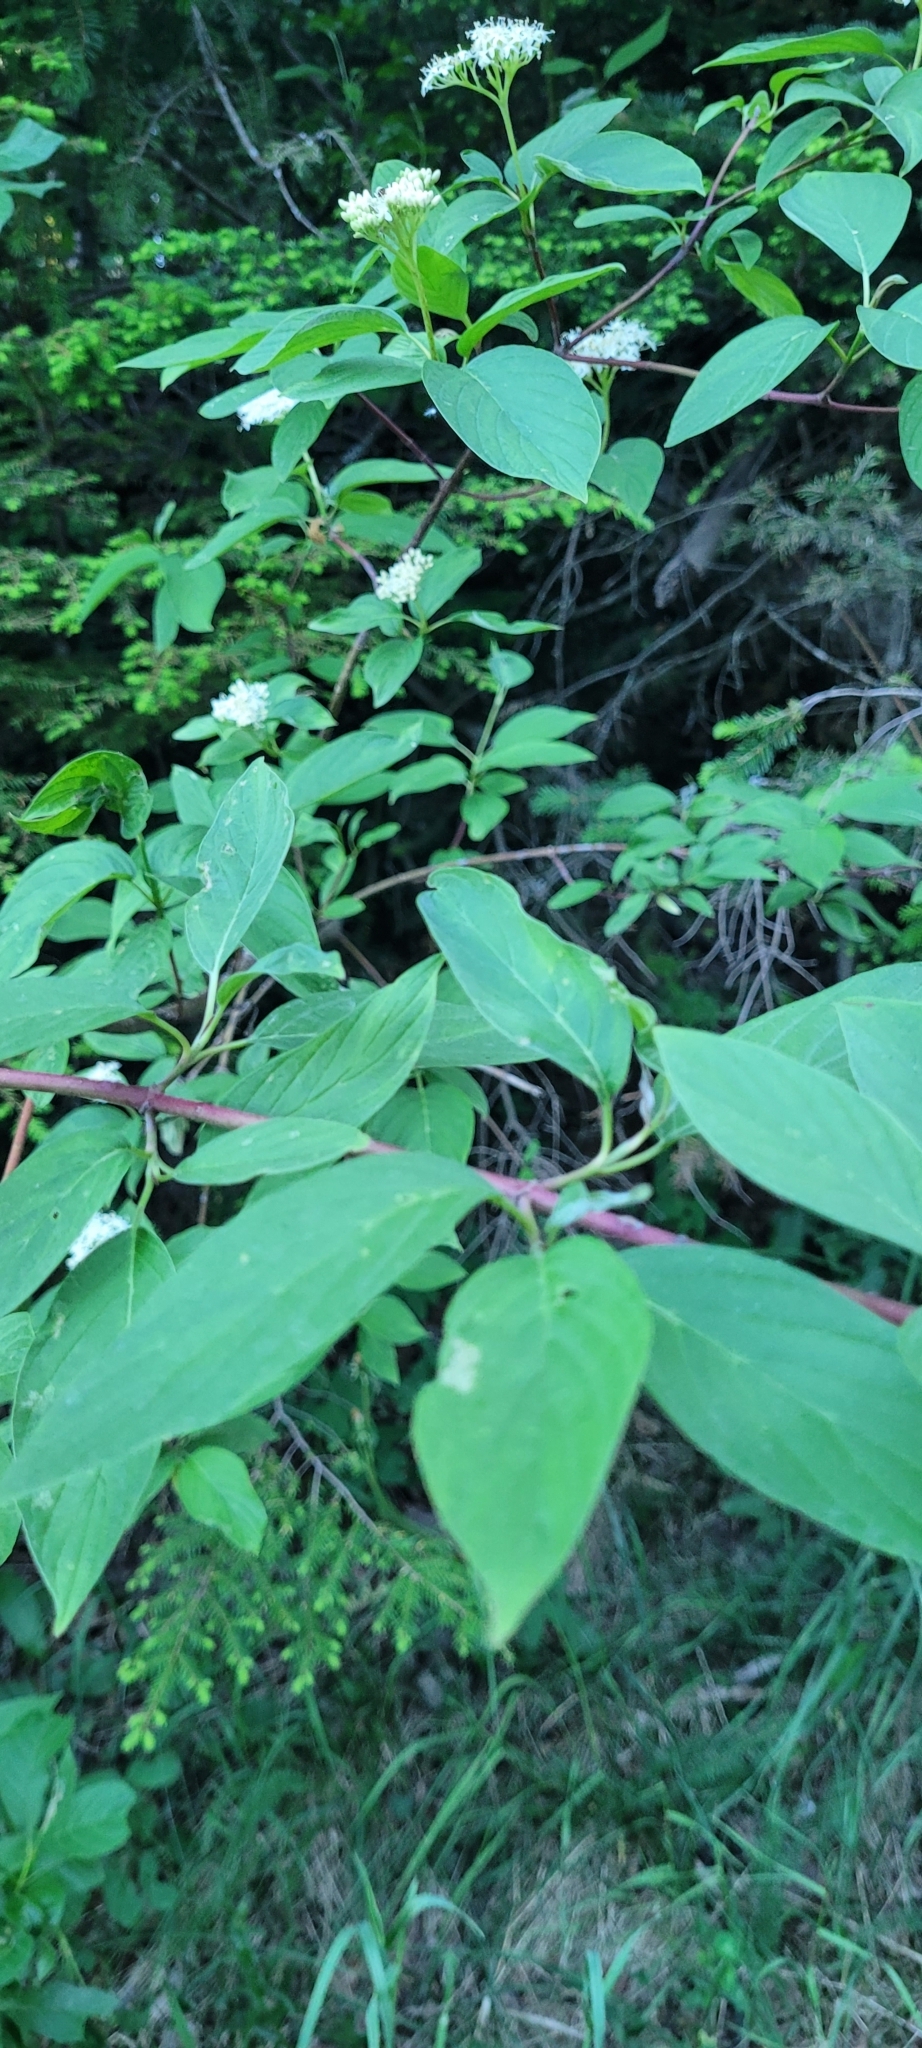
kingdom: Plantae
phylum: Tracheophyta
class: Magnoliopsida
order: Cornales
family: Cornaceae
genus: Cornus
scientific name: Cornus sericea
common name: Red-osier dogwood
